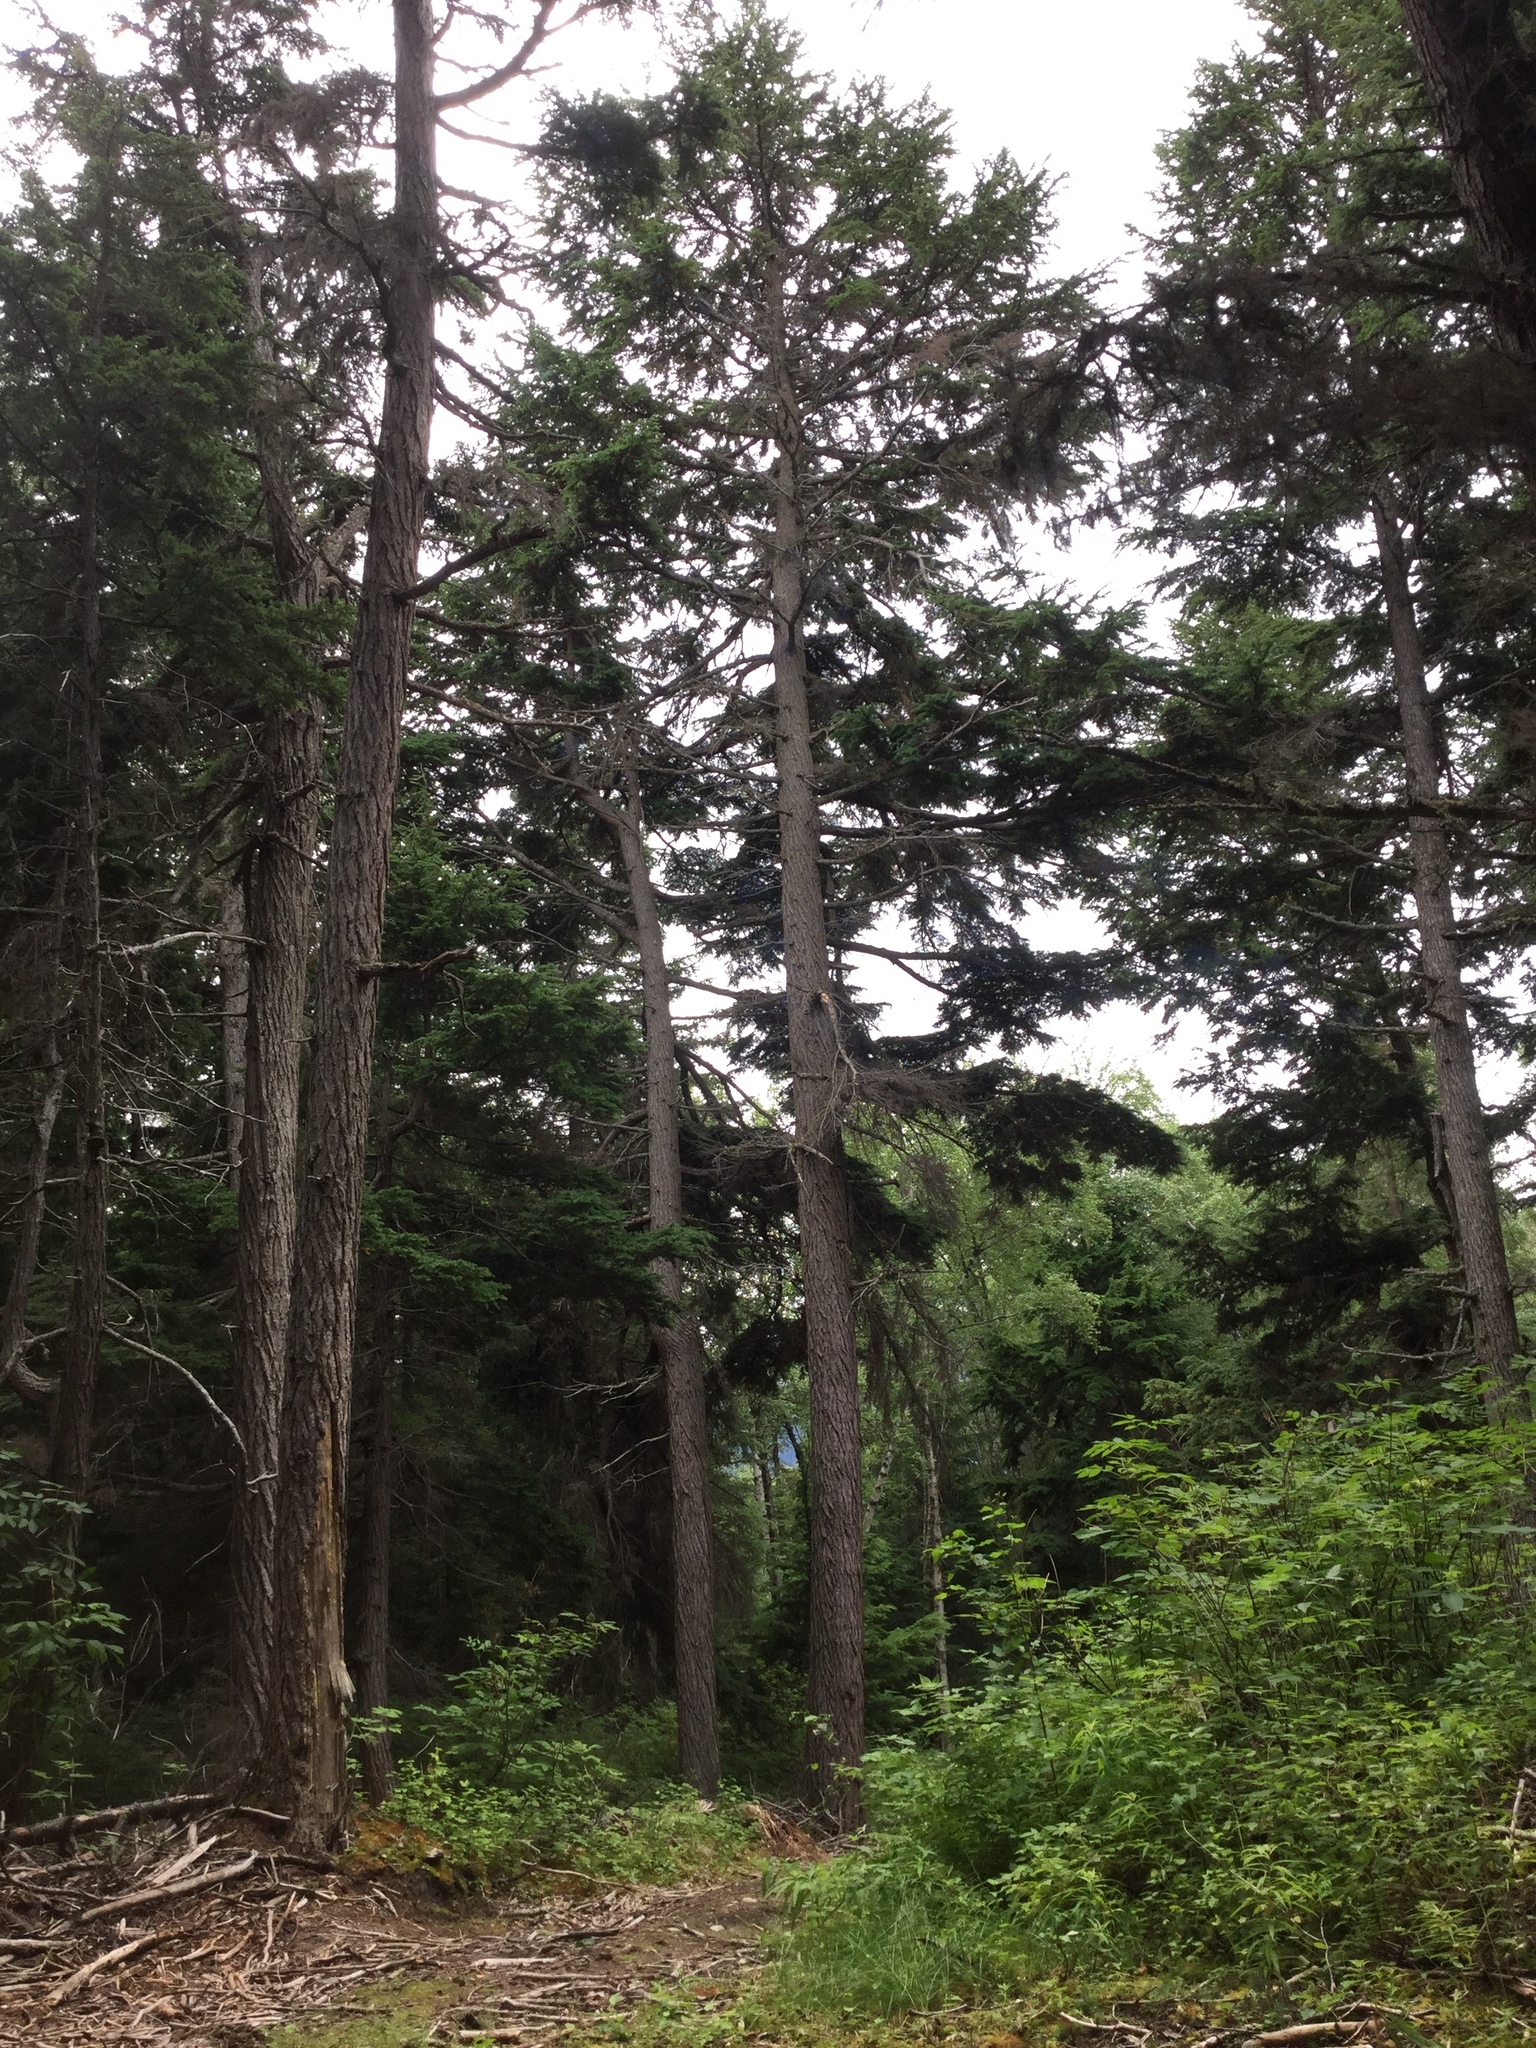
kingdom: Plantae
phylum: Tracheophyta
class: Pinopsida
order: Pinales
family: Pinaceae
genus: Tsuga
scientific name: Tsuga mertensiana
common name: Mountain hemlock
